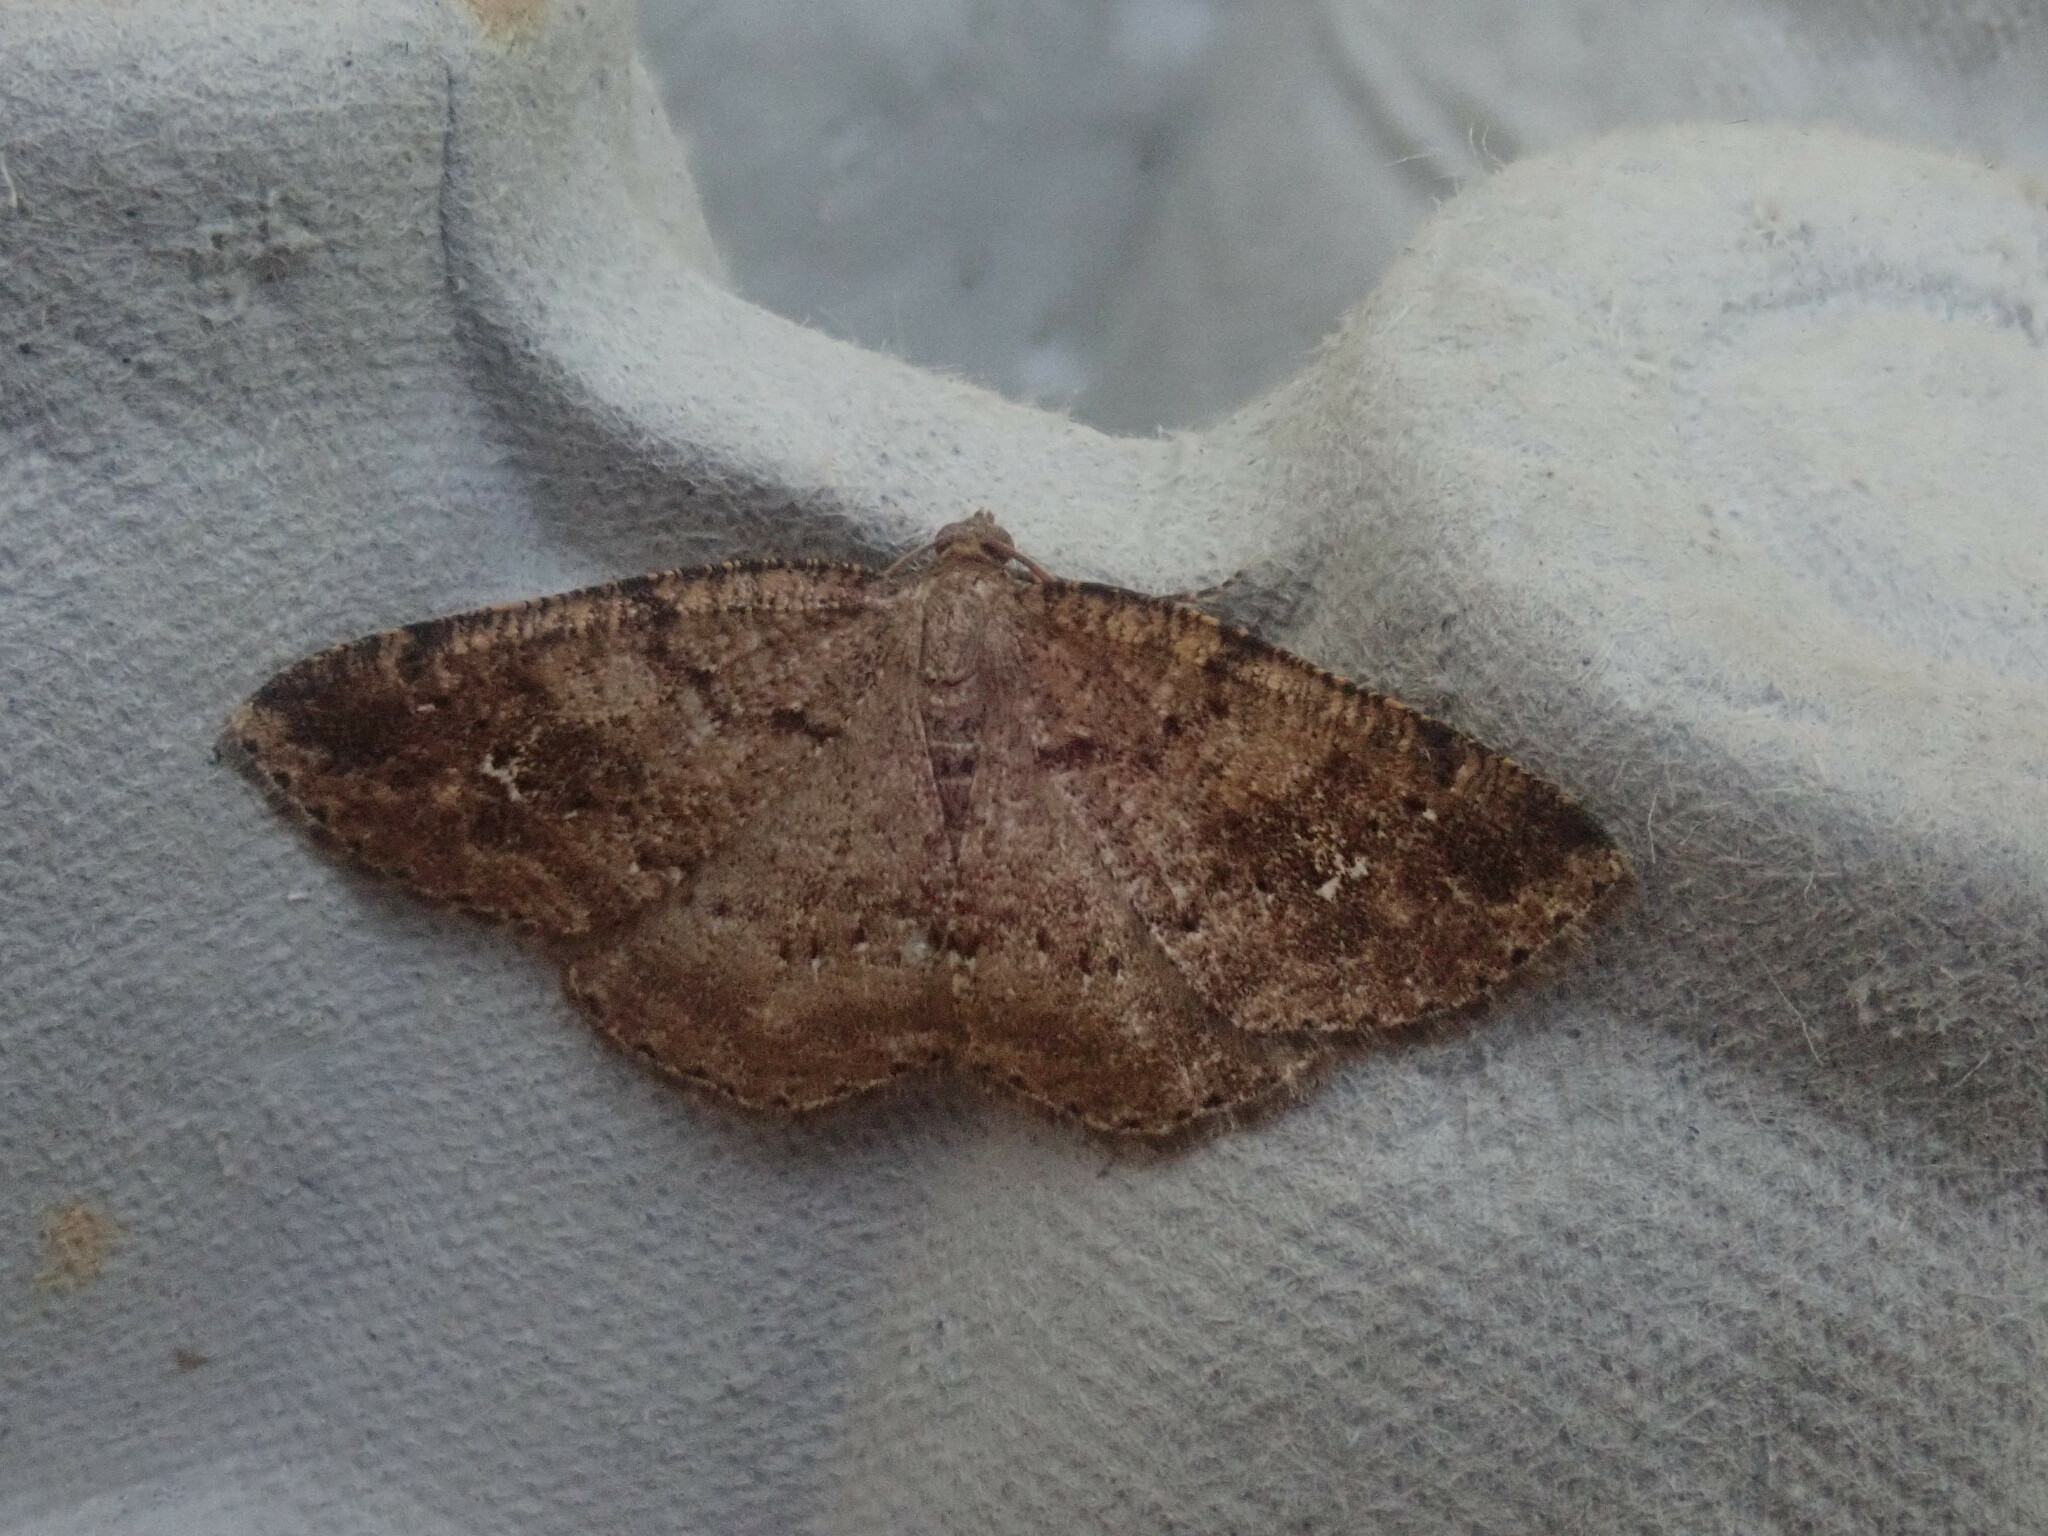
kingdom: Animalia
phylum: Arthropoda
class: Insecta
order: Lepidoptera
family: Geometridae
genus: Homochlodes
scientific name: Homochlodes fritillaria
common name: Pale homochlodes
